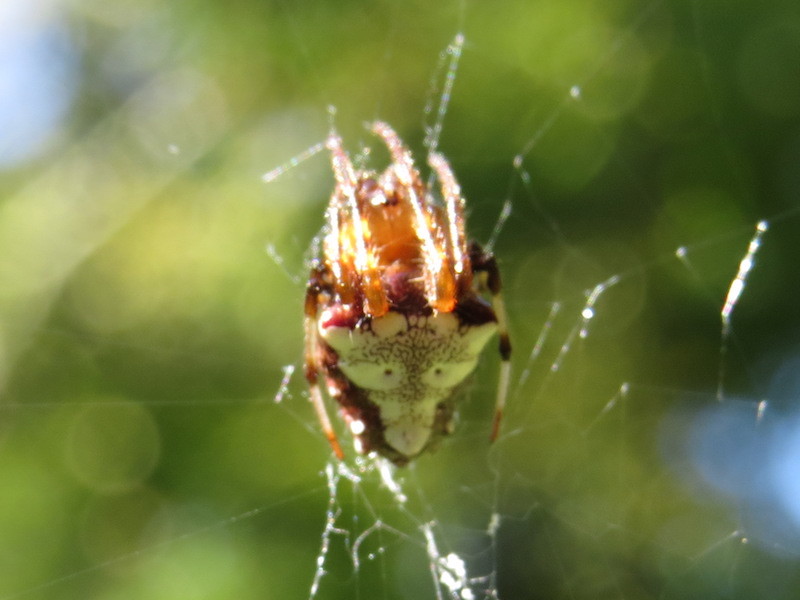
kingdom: Animalia
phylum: Arthropoda
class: Arachnida
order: Araneae
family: Araneidae
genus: Verrucosa
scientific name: Verrucosa arenata
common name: Orb weavers
